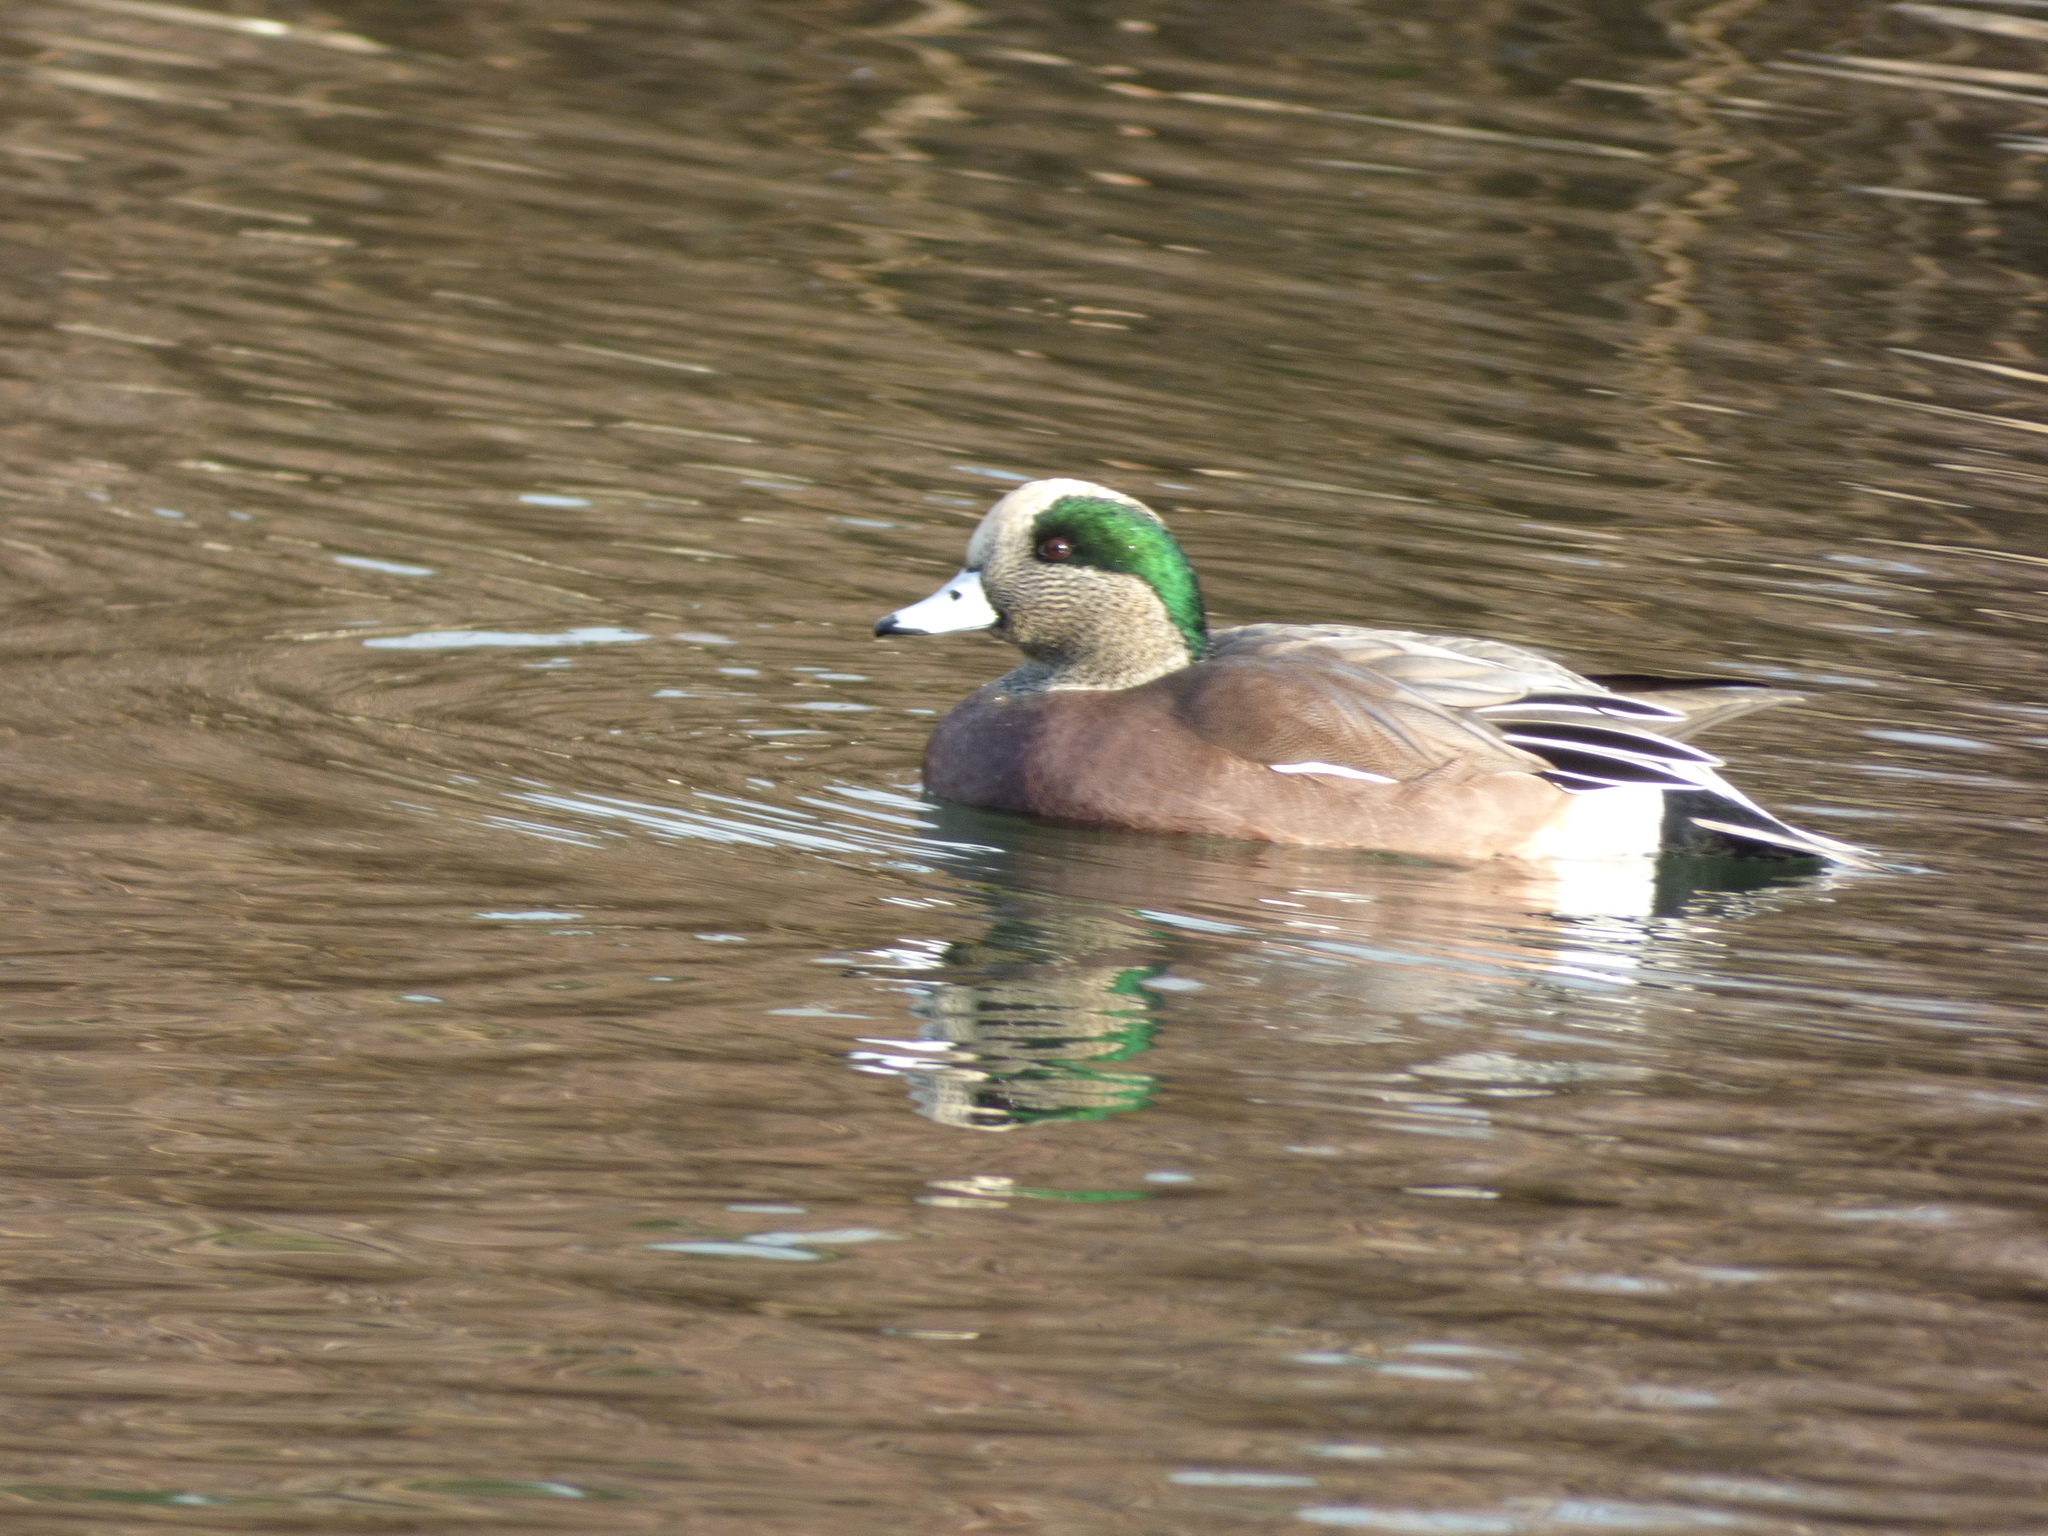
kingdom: Animalia
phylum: Chordata
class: Aves
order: Anseriformes
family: Anatidae
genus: Mareca
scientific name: Mareca americana
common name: American wigeon
